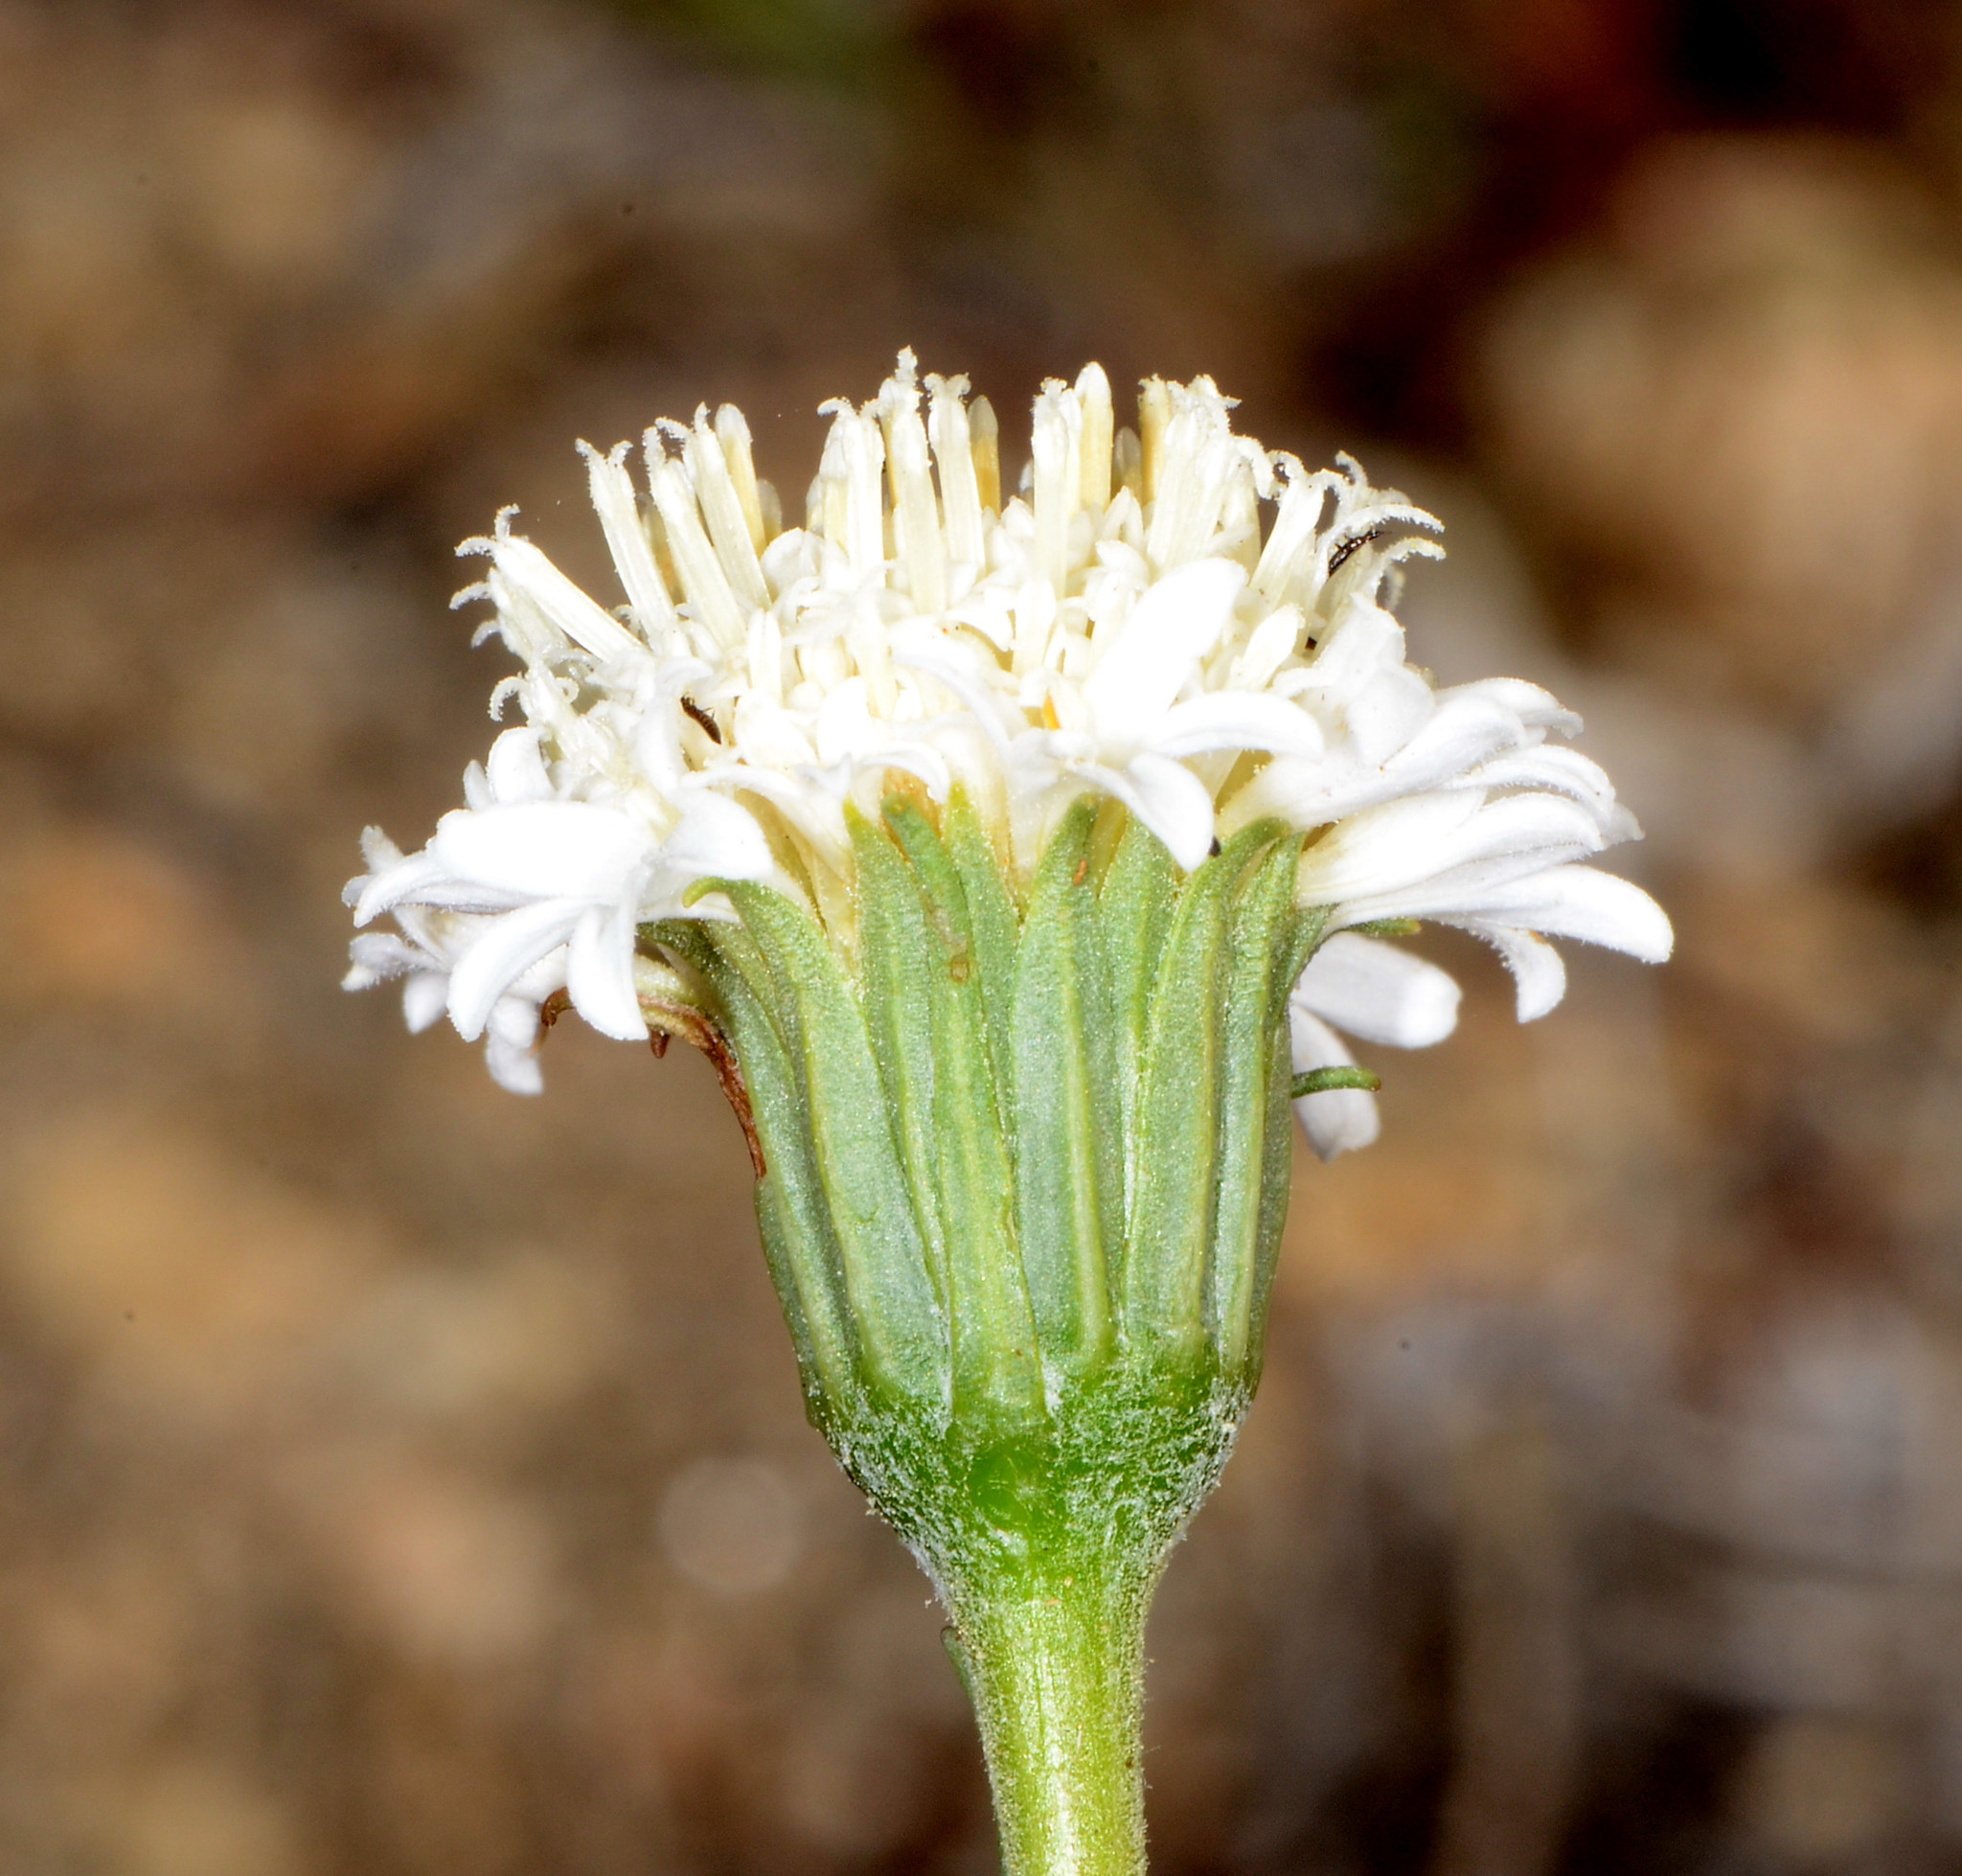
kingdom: Plantae
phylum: Tracheophyta
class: Magnoliopsida
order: Asterales
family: Asteraceae
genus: Chaenactis
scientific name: Chaenactis fremontii
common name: Fremont pincushion
